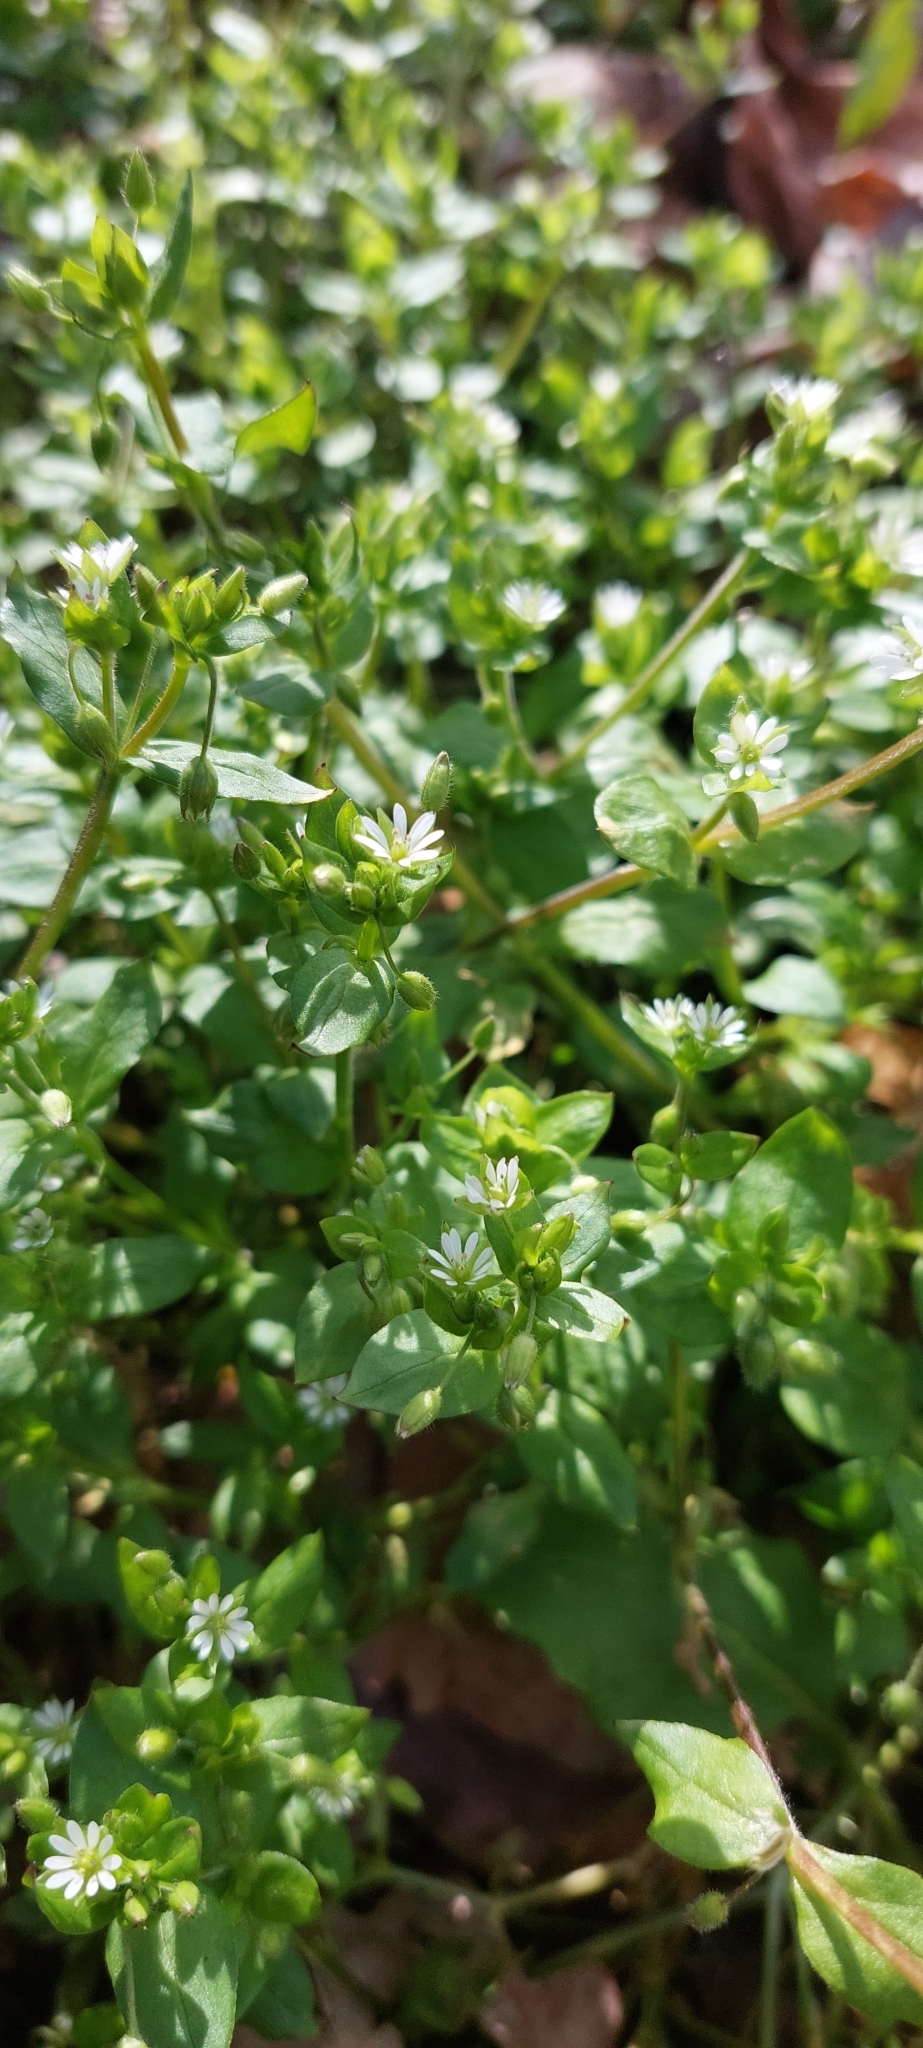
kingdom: Plantae
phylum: Tracheophyta
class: Magnoliopsida
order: Caryophyllales
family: Caryophyllaceae
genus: Stellaria
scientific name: Stellaria media
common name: Common chickweed
